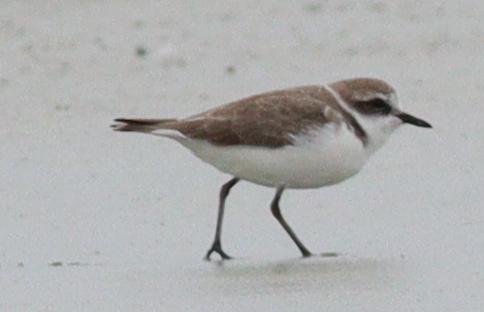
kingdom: Animalia
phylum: Chordata
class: Aves
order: Charadriiformes
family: Charadriidae
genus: Charadrius
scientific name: Charadrius alexandrinus
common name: Kentish plover
